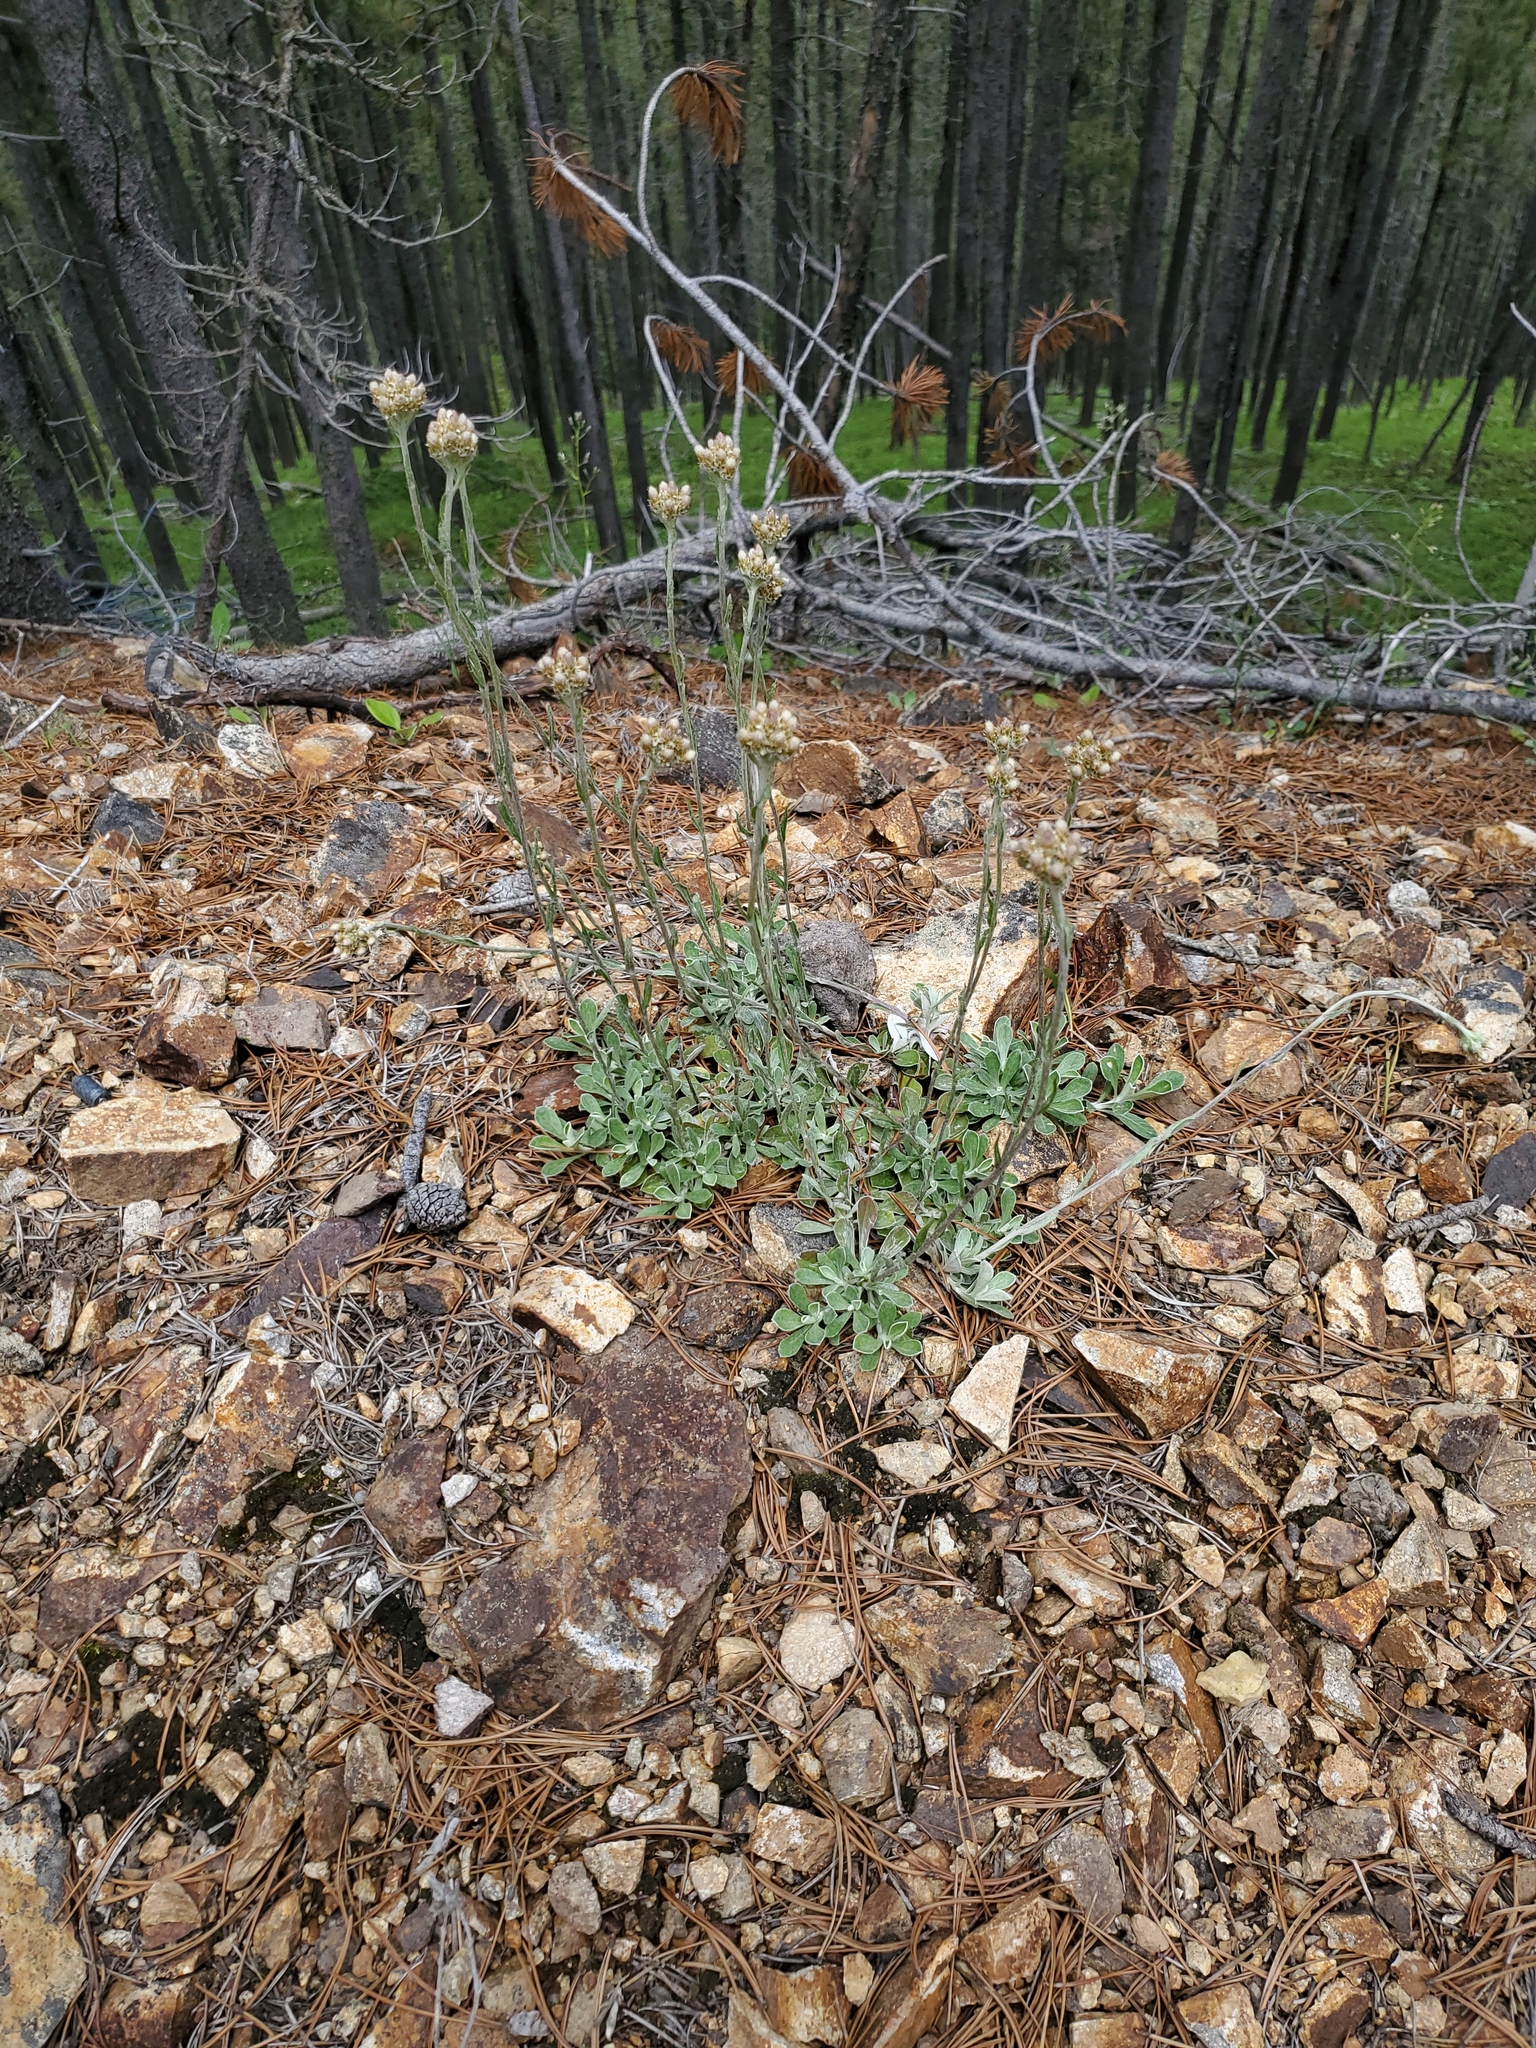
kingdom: Plantae
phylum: Tracheophyta
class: Magnoliopsida
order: Asterales
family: Asteraceae
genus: Antennaria
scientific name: Antennaria howellii
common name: Howell's pussytoes
